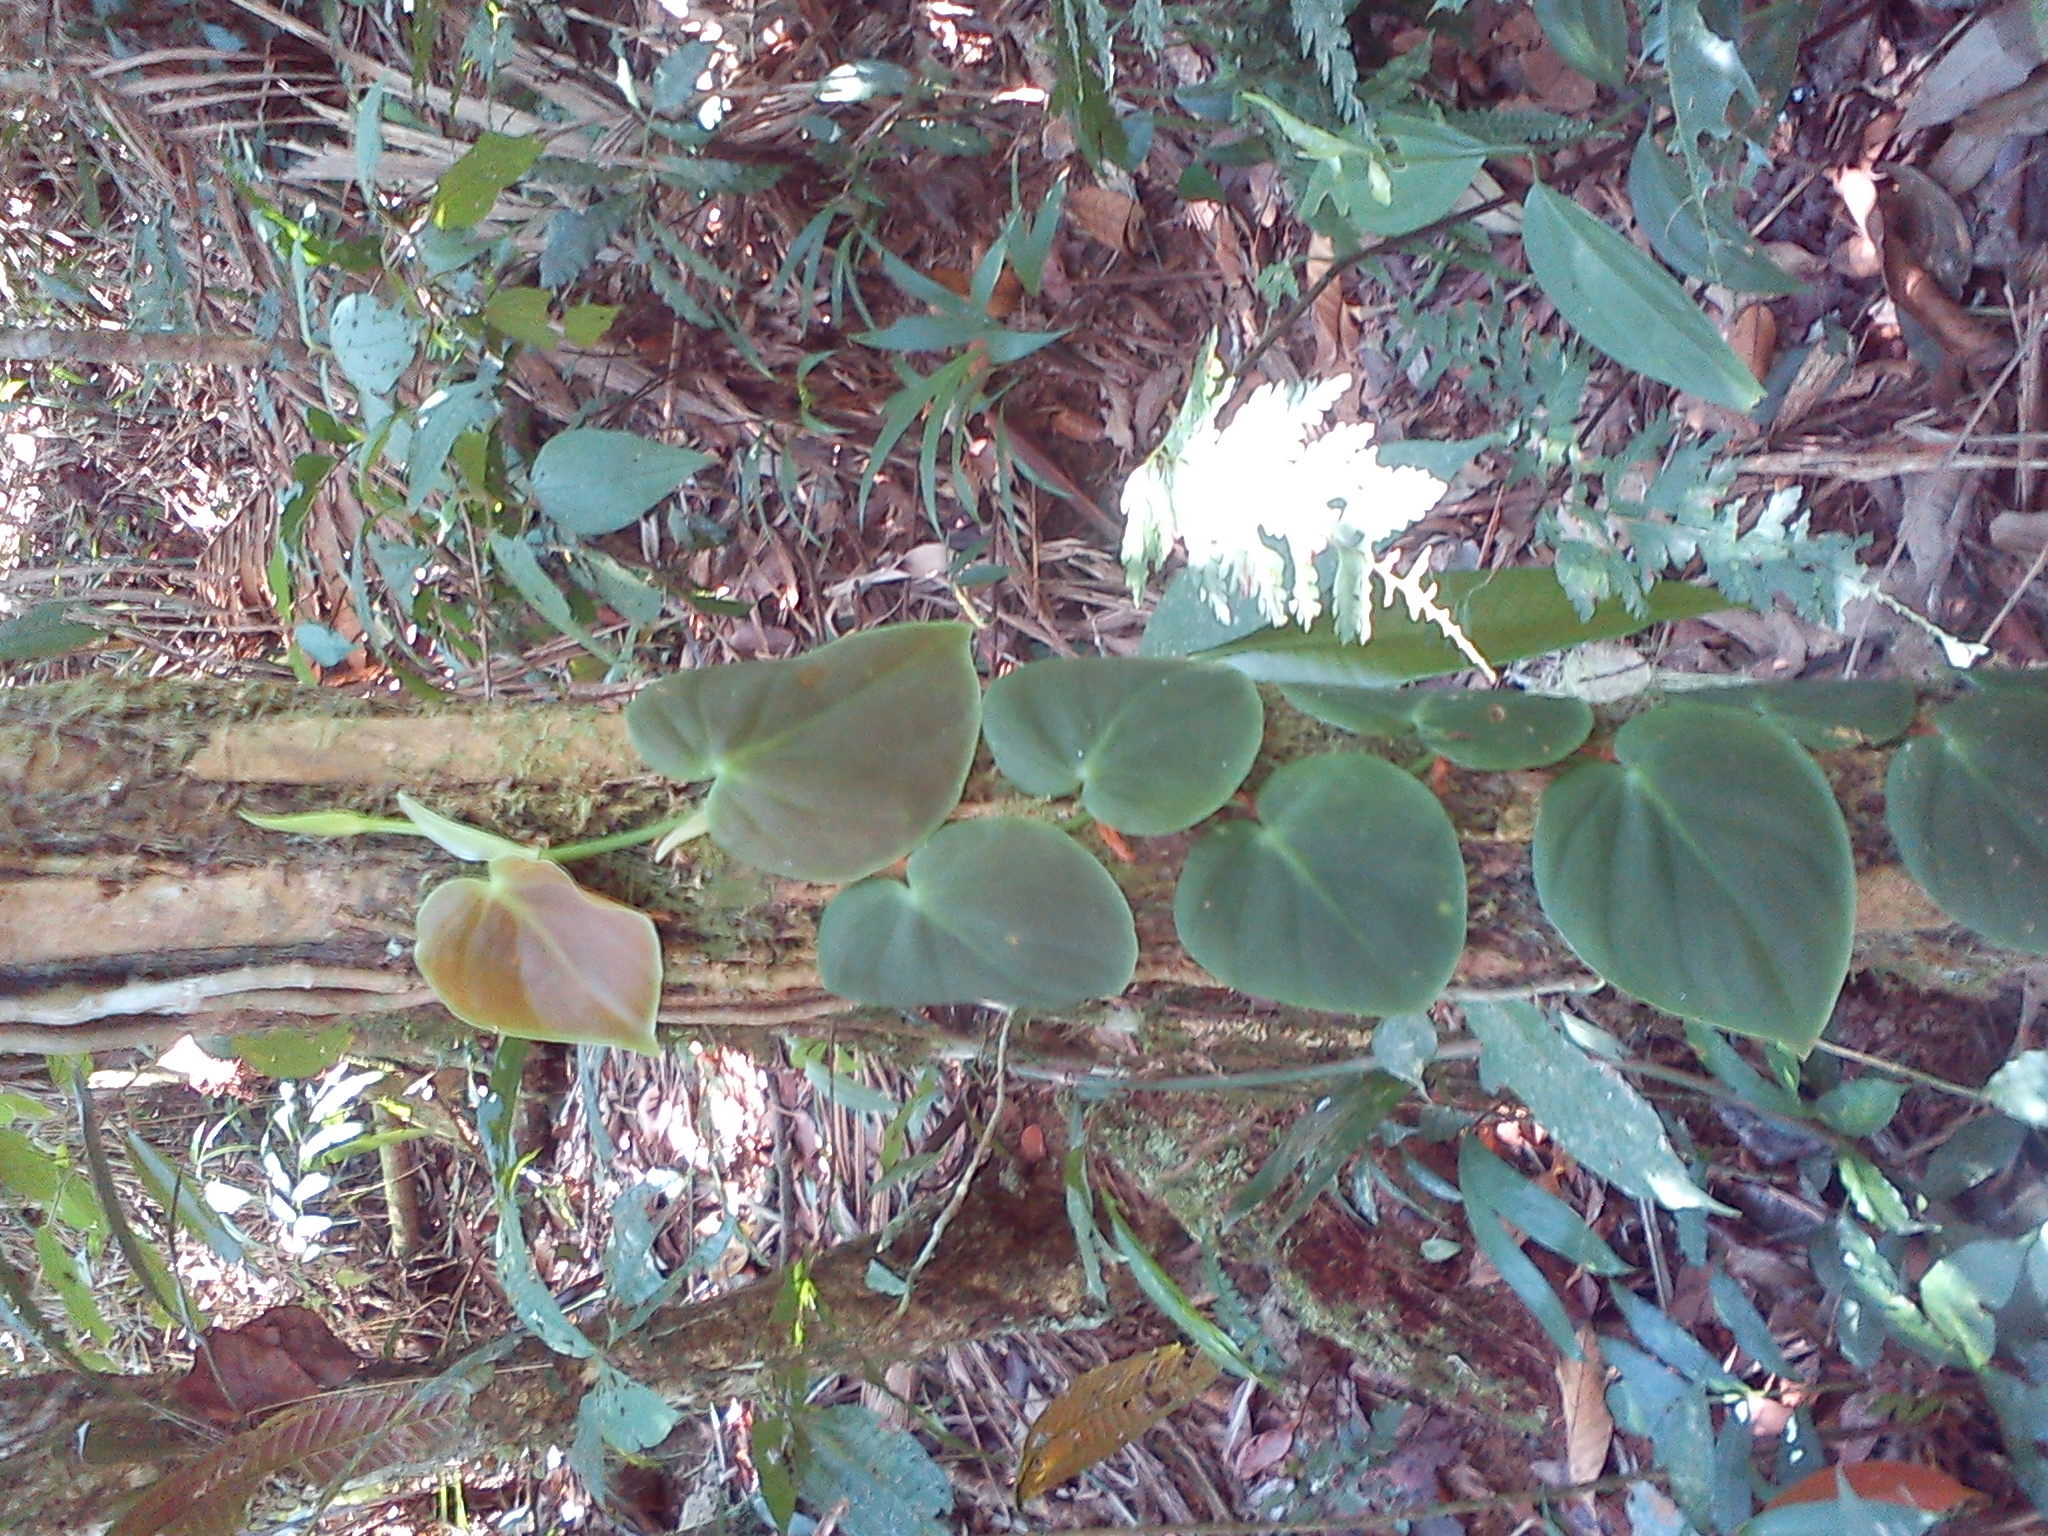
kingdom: Plantae
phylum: Tracheophyta
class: Liliopsida
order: Alismatales
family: Araceae
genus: Philodendron
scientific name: Philodendron hederaceum
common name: Vilevine
